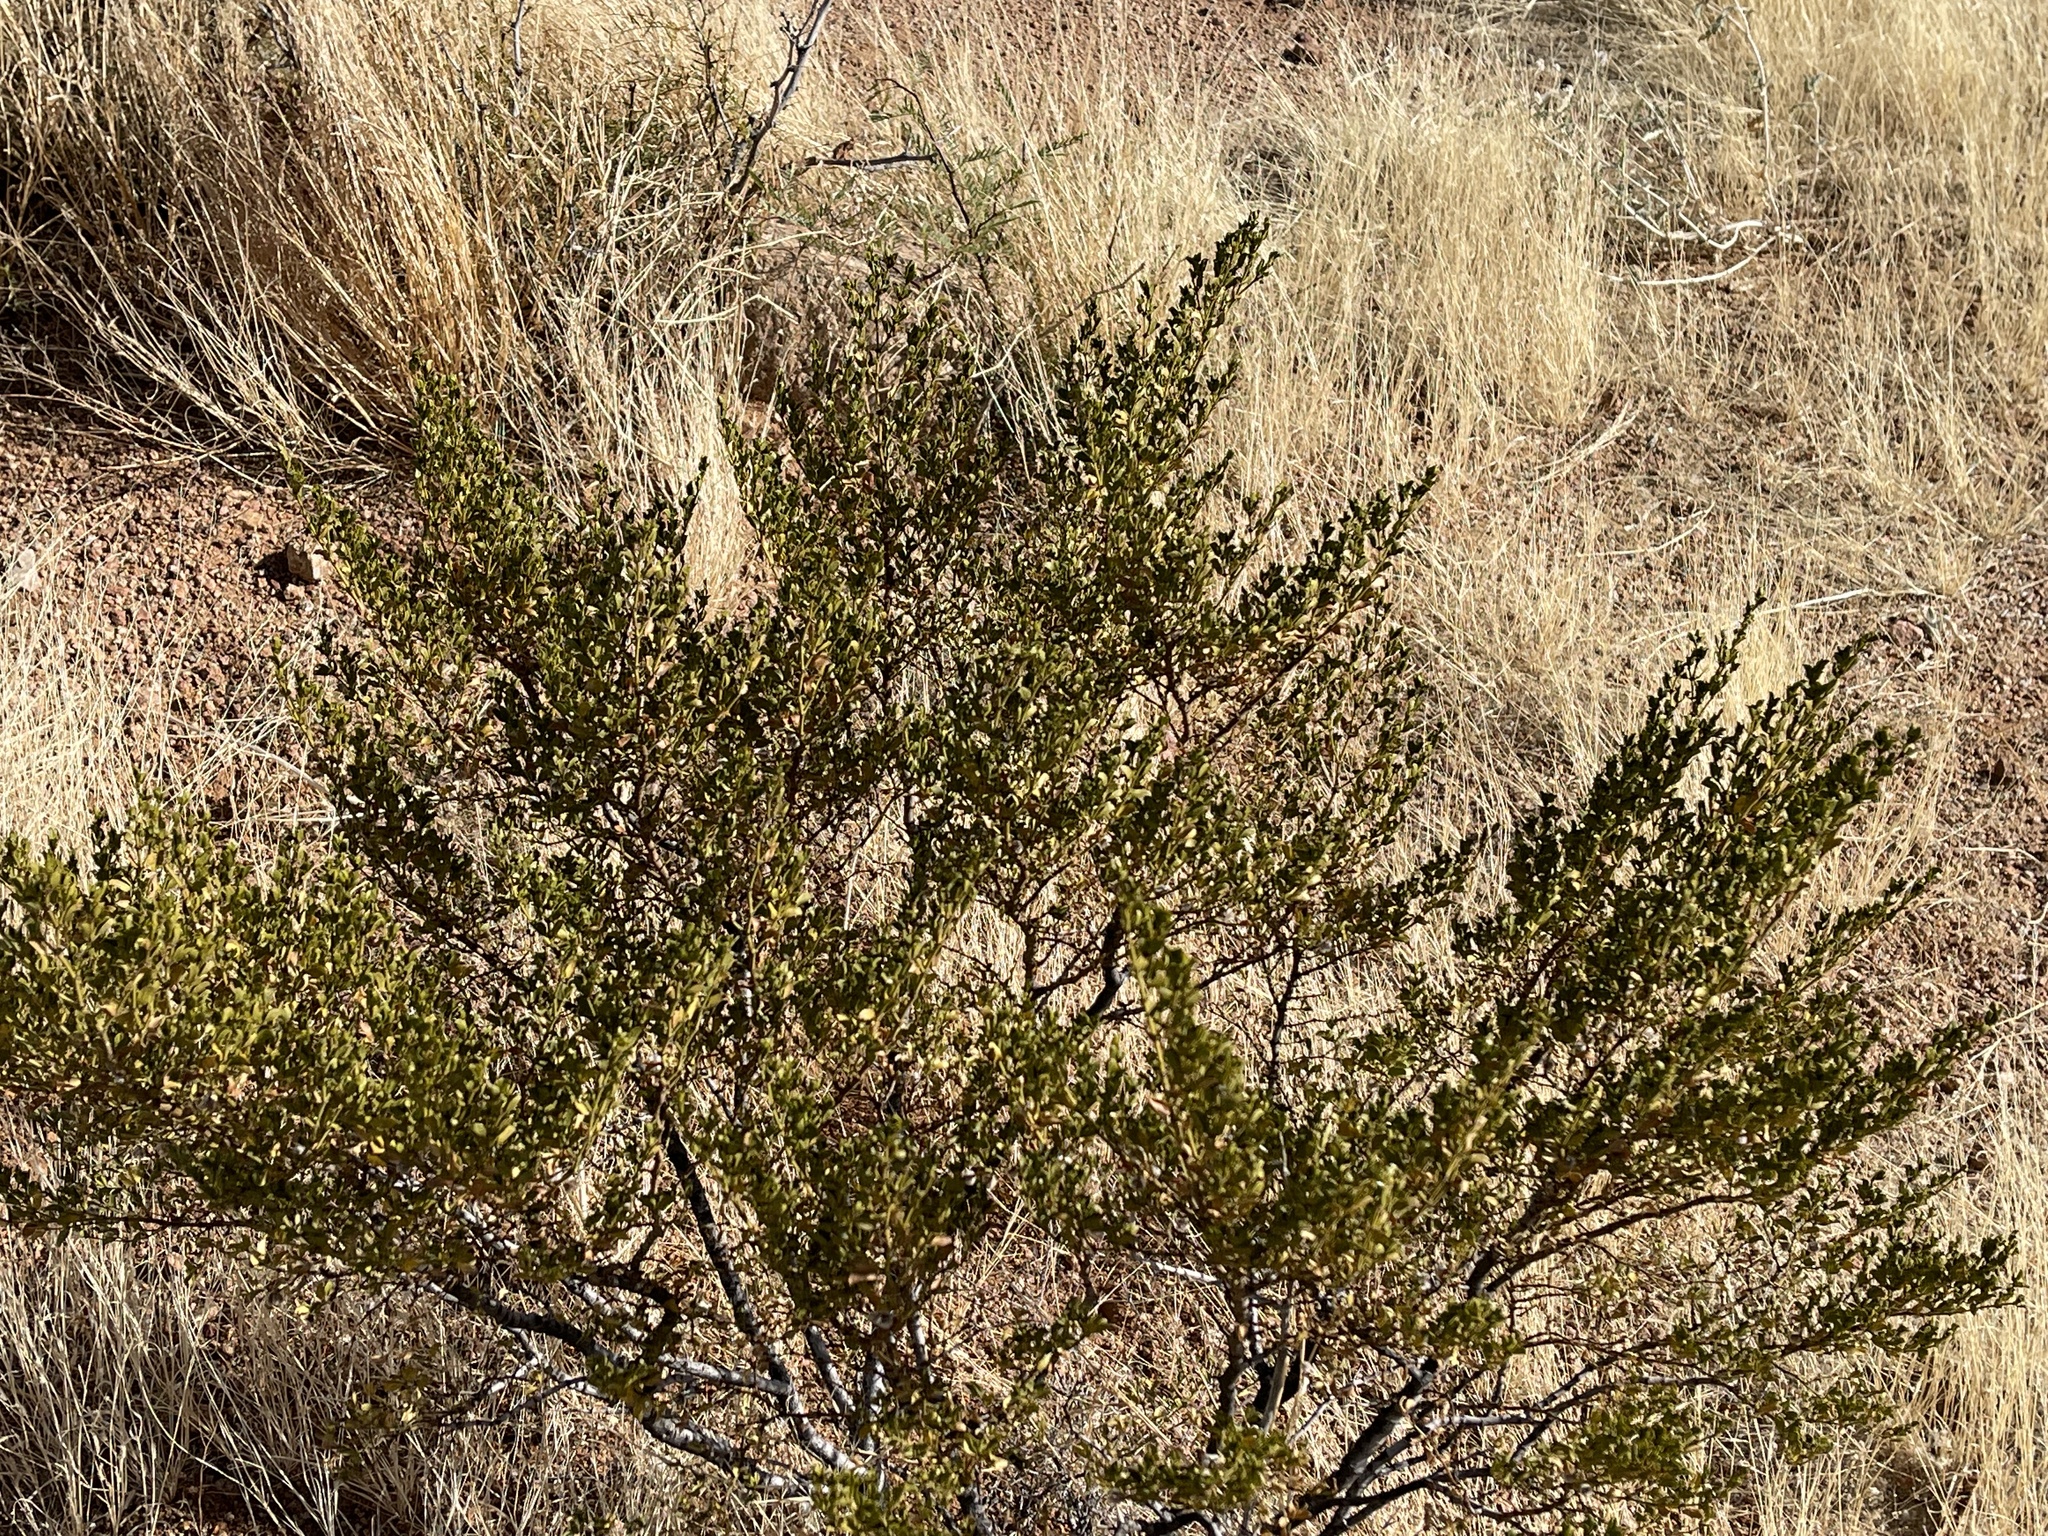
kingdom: Plantae
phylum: Tracheophyta
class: Magnoliopsida
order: Zygophyllales
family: Zygophyllaceae
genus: Larrea
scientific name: Larrea tridentata
